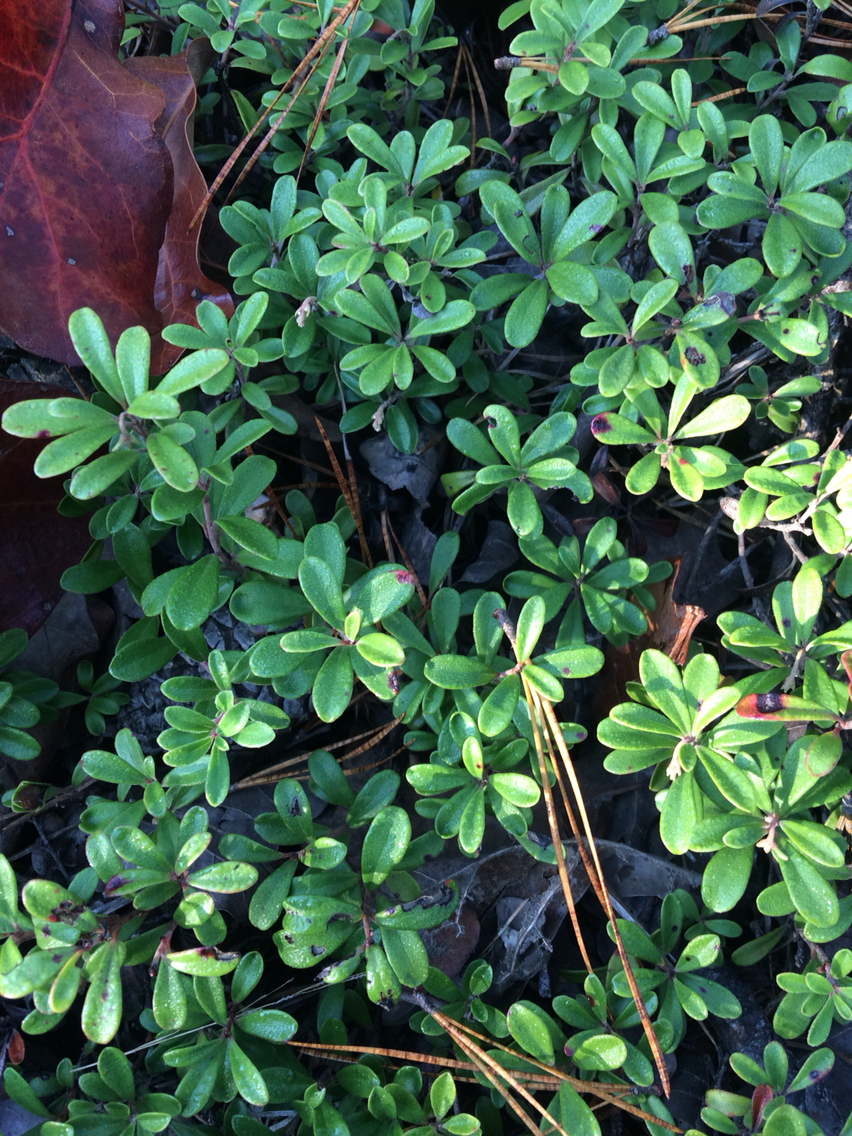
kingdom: Plantae
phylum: Tracheophyta
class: Magnoliopsida
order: Ericales
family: Ericaceae
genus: Arctostaphylos
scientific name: Arctostaphylos uva-ursi
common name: Bearberry
